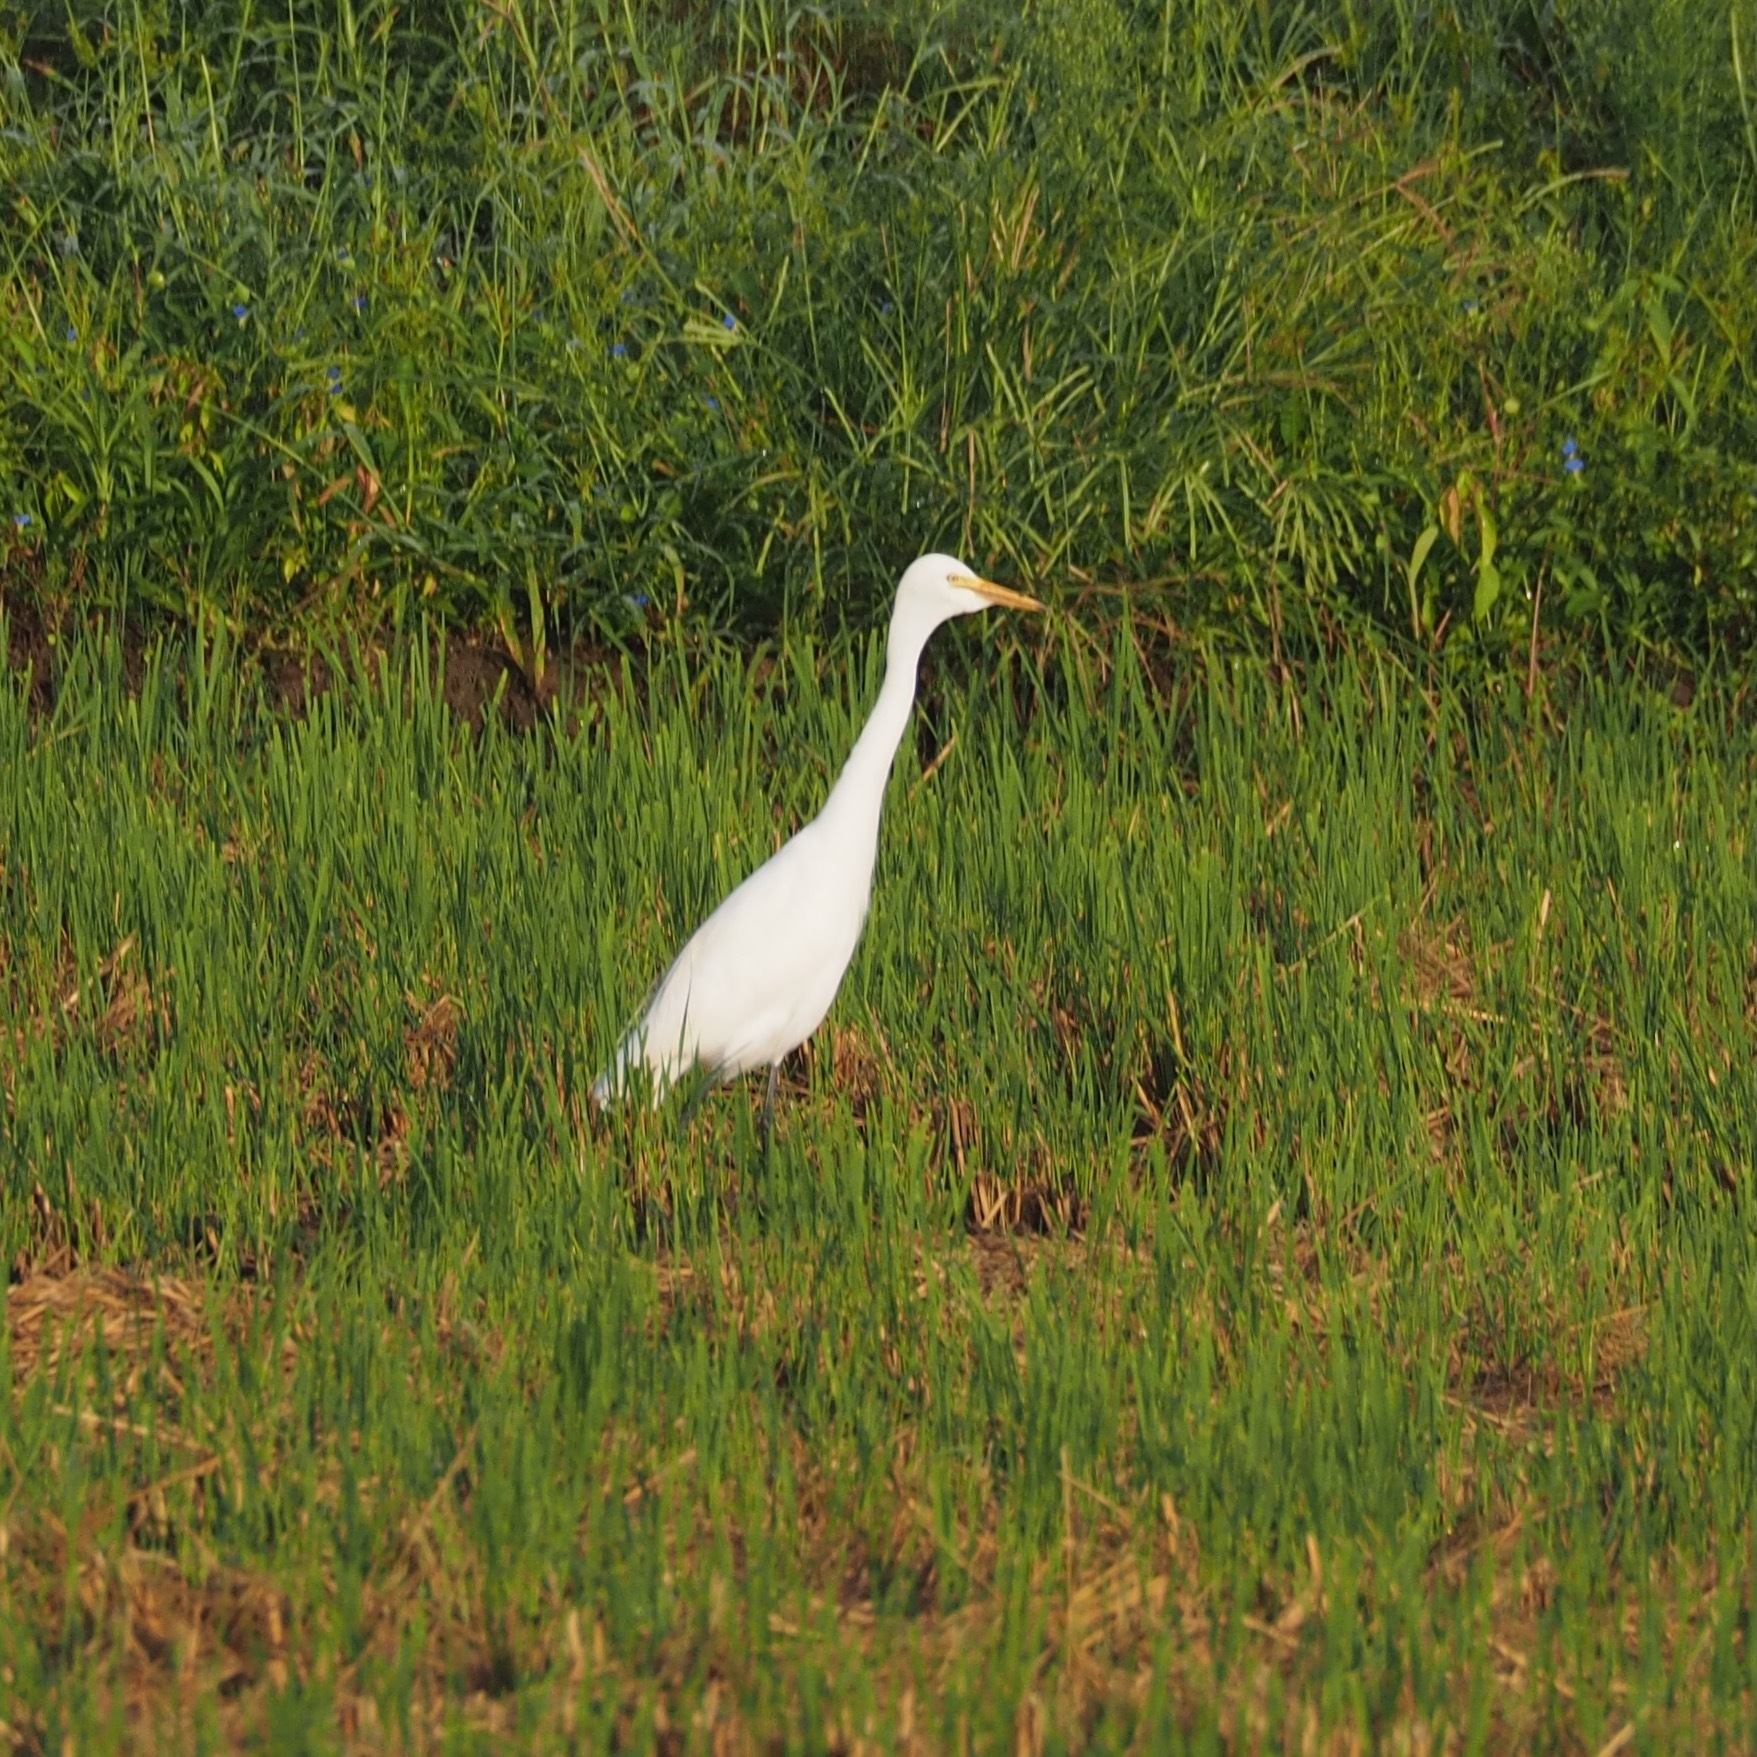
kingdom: Animalia
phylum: Chordata
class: Aves
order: Pelecaniformes
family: Ardeidae
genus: Egretta
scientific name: Egretta intermedia
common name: Intermediate egret
